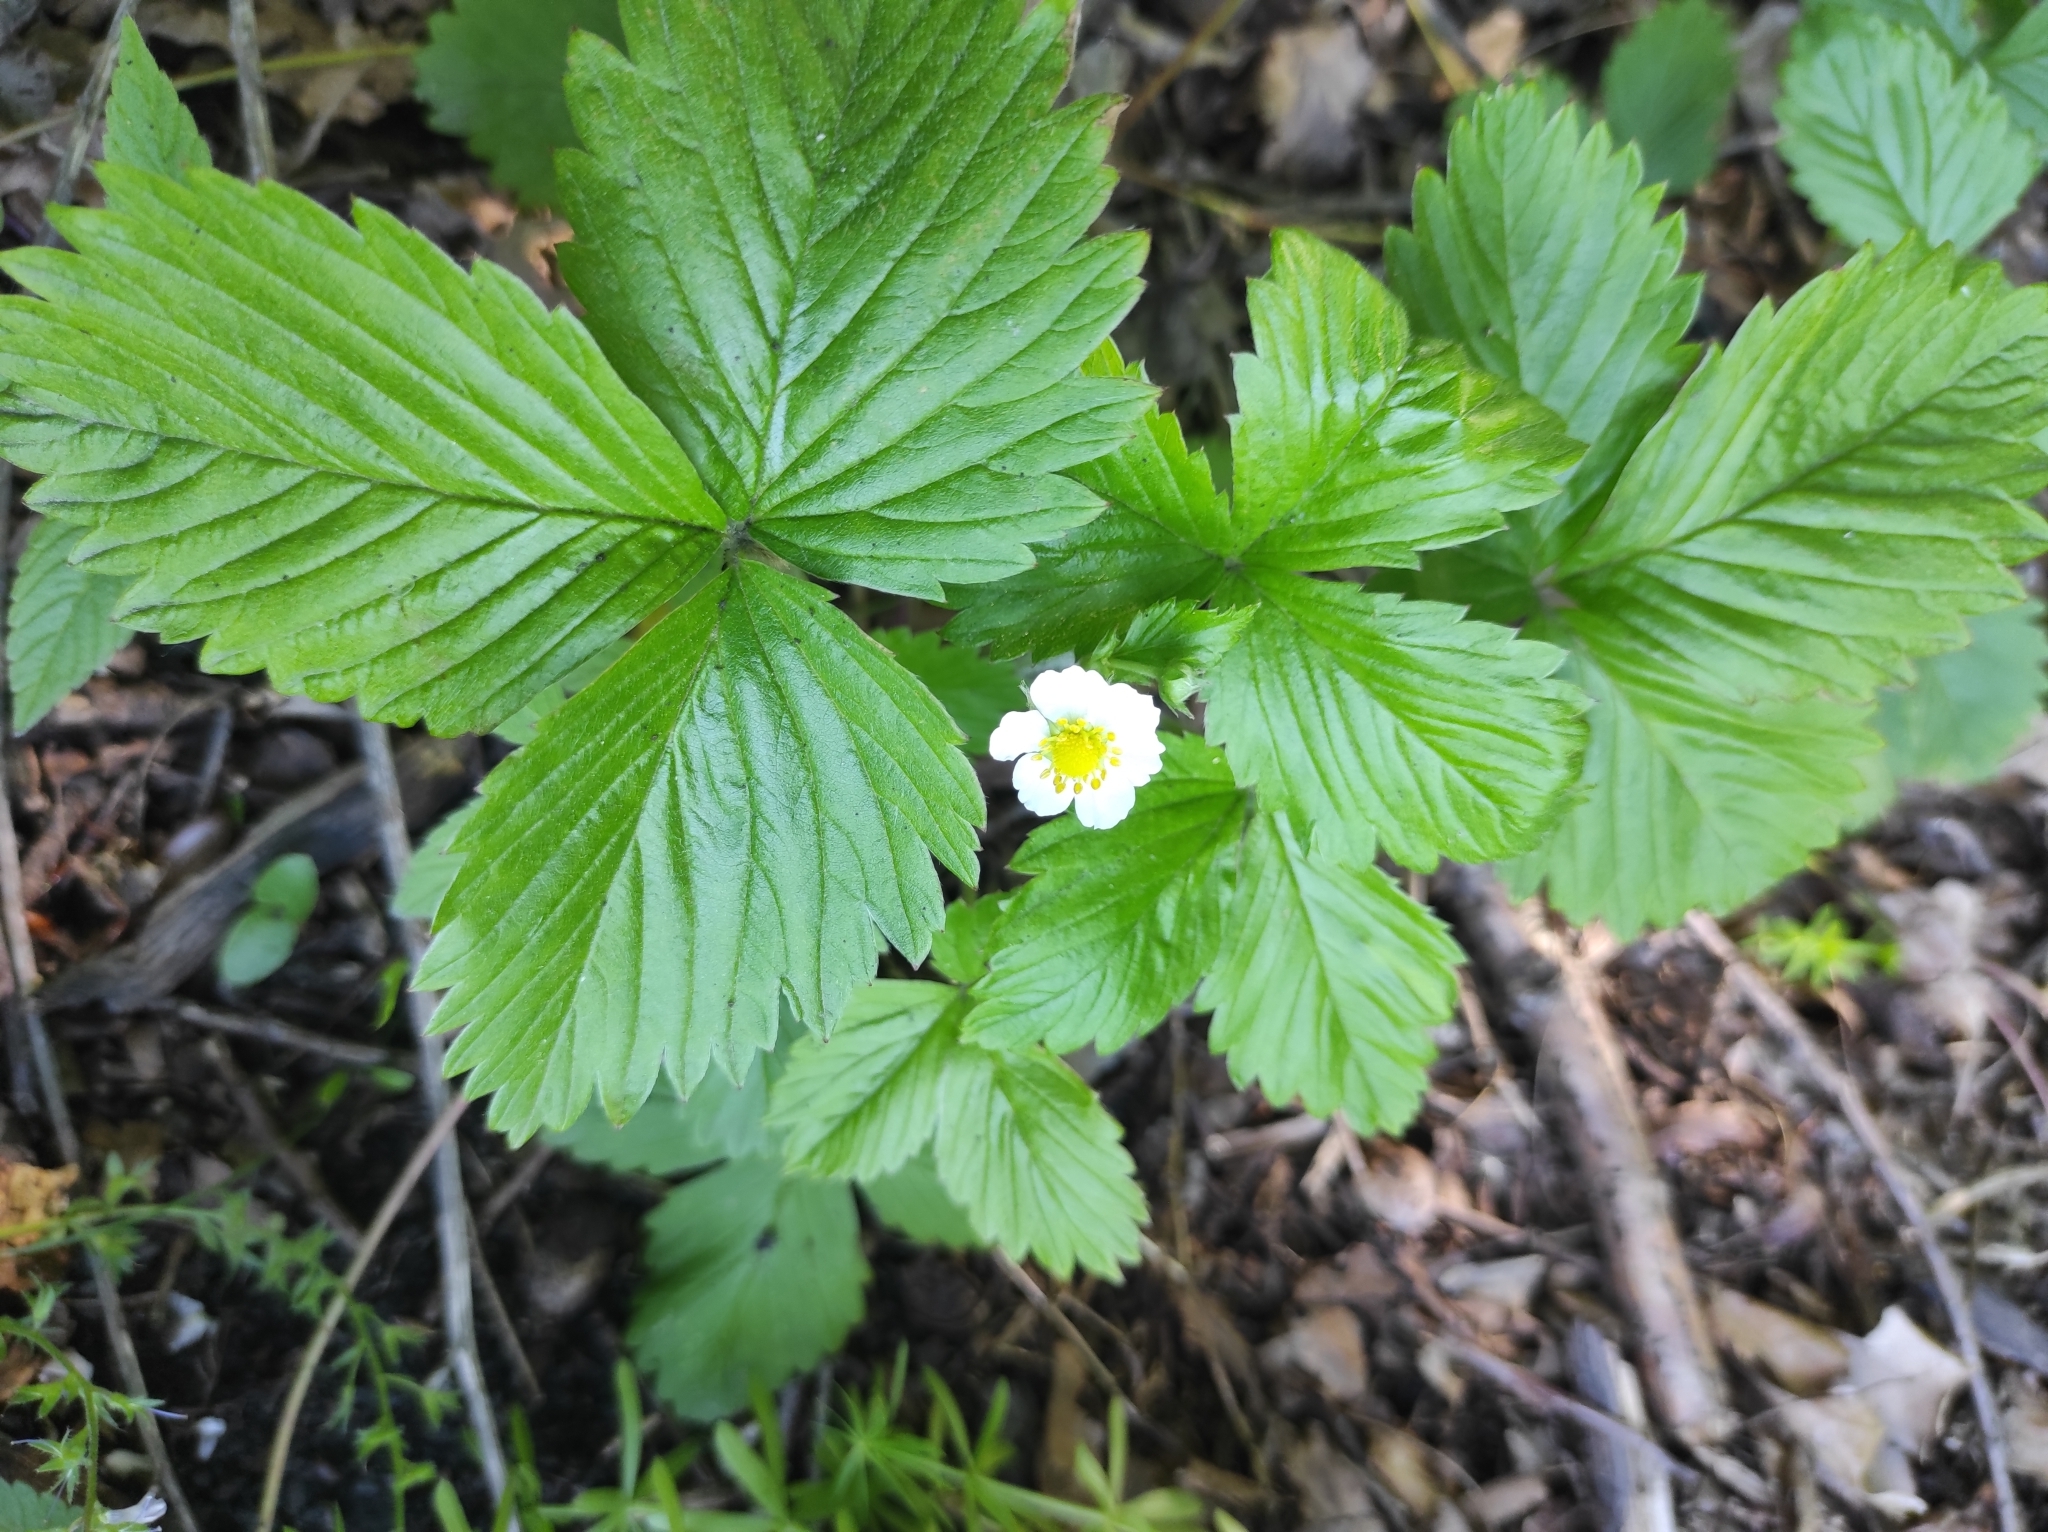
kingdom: Plantae
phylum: Tracheophyta
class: Magnoliopsida
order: Rosales
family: Rosaceae
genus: Fragaria
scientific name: Fragaria vesca
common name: Wild strawberry
